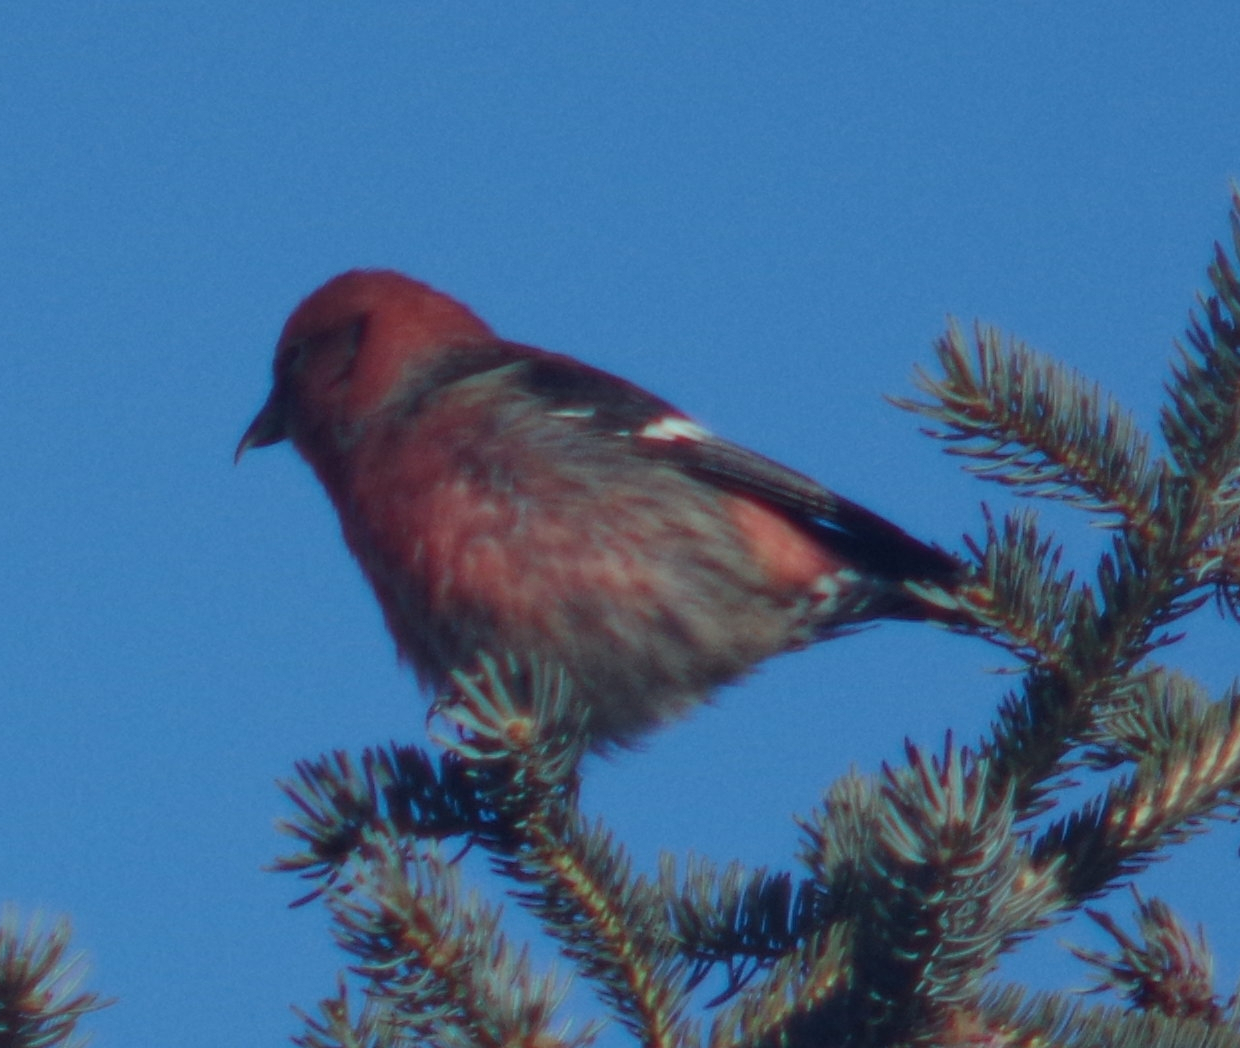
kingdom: Animalia
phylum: Chordata
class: Aves
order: Passeriformes
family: Fringillidae
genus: Loxia
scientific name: Loxia leucoptera
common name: Two-barred crossbill
